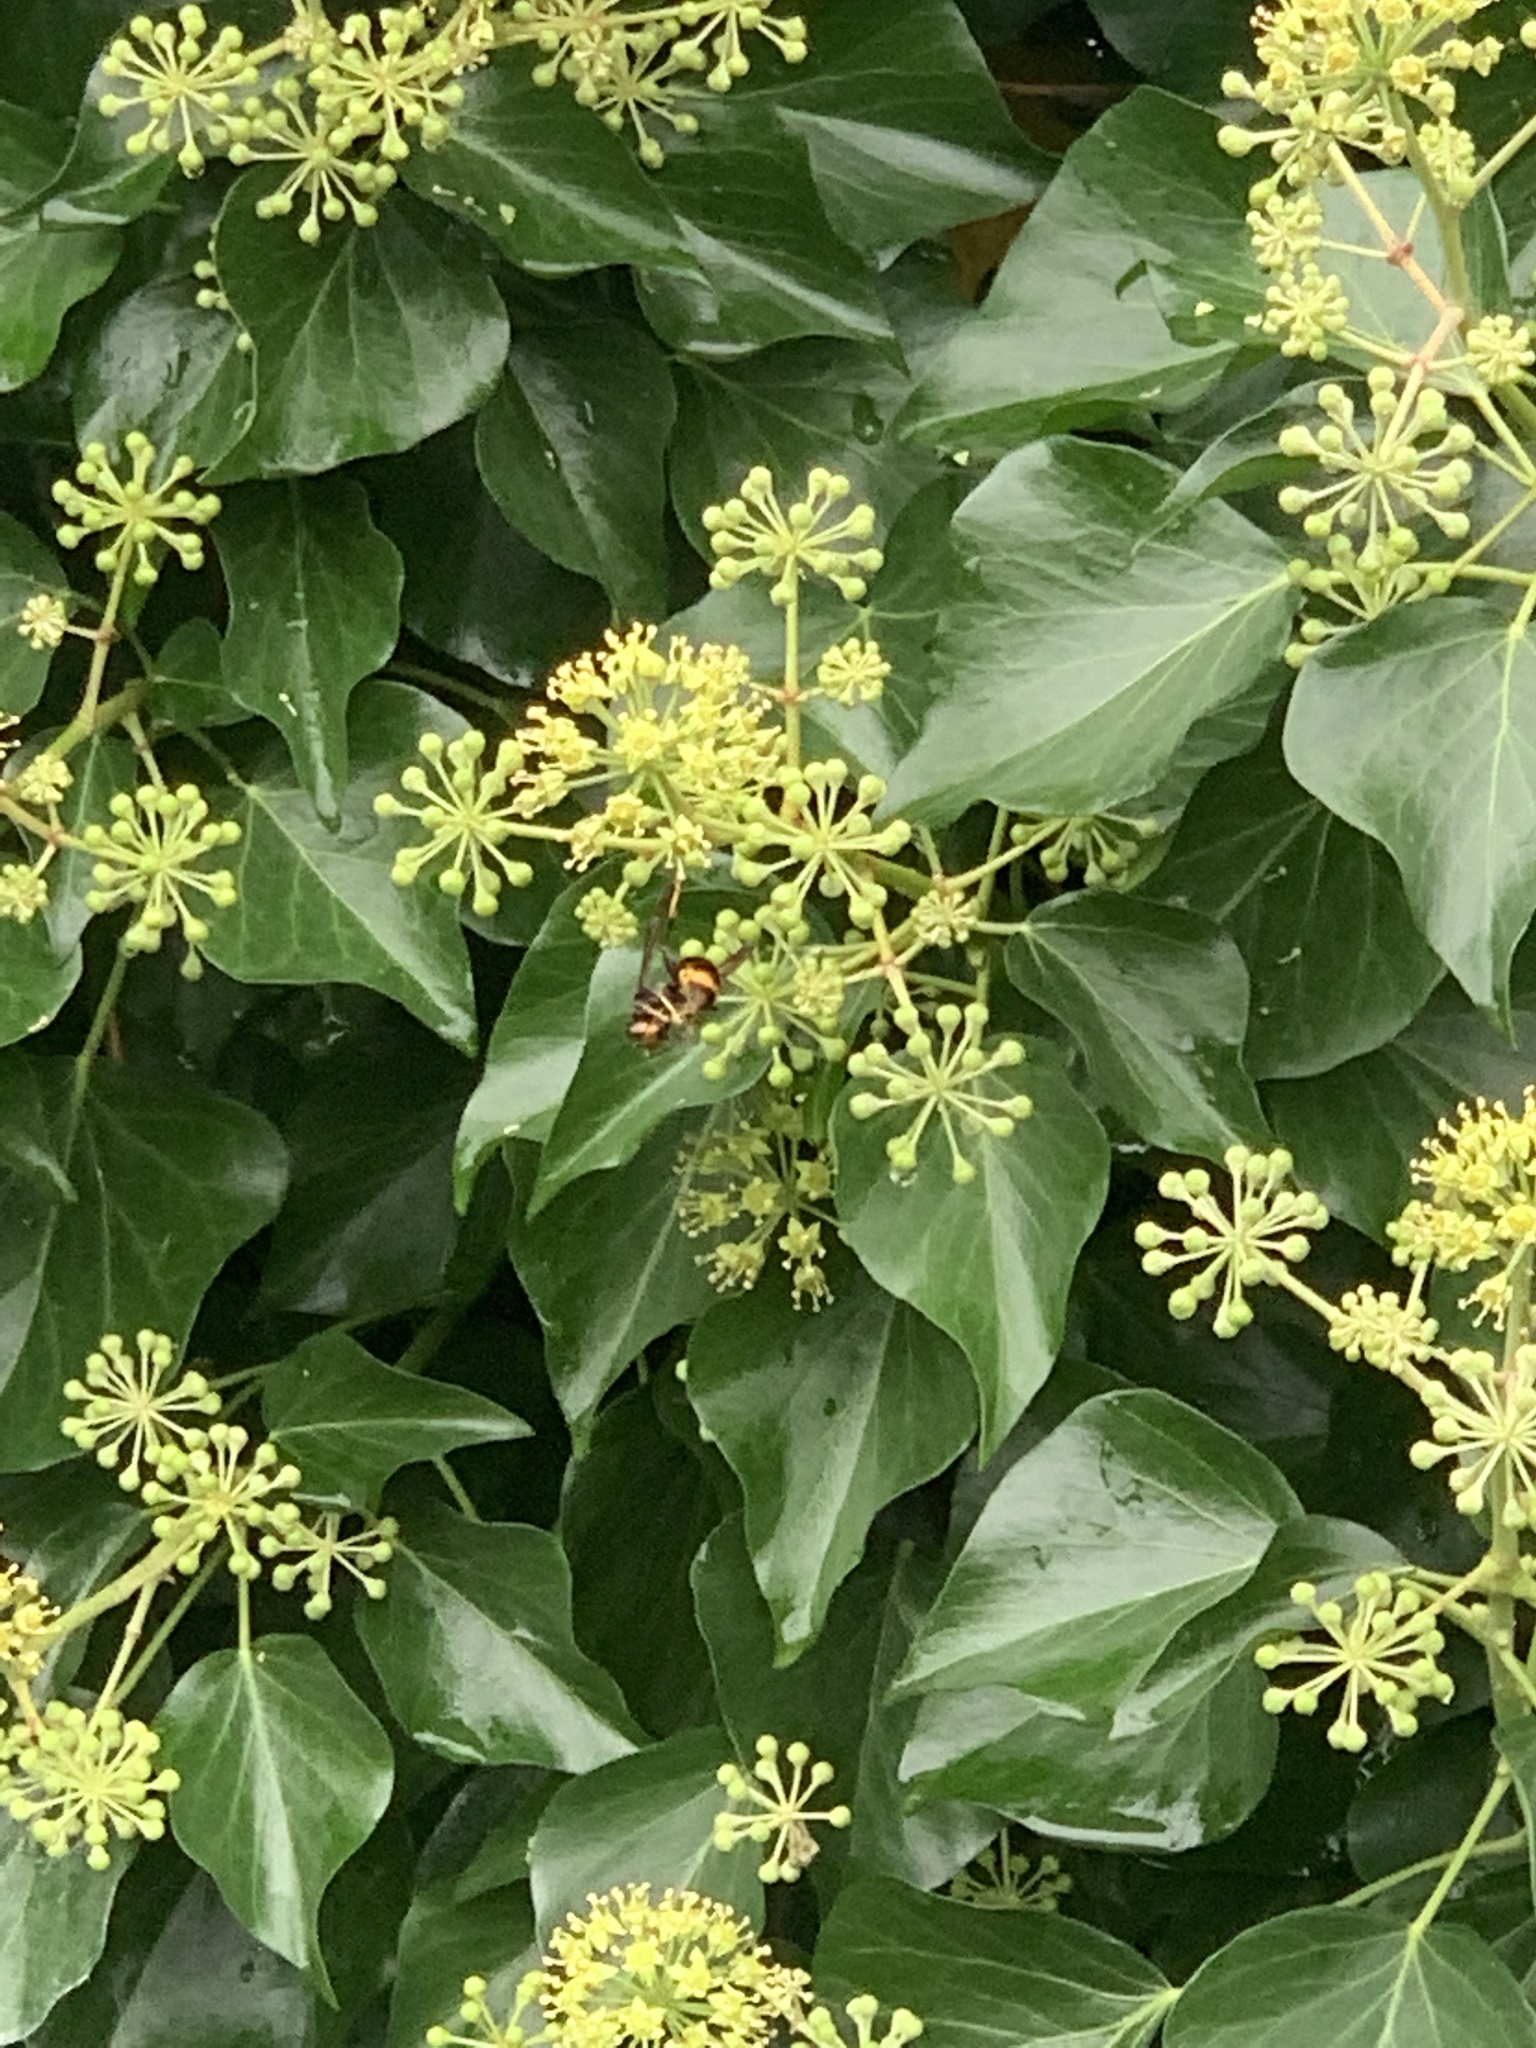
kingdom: Animalia
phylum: Arthropoda
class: Insecta
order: Hymenoptera
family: Vespidae
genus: Vespa
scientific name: Vespa velutina
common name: Asian hornet
